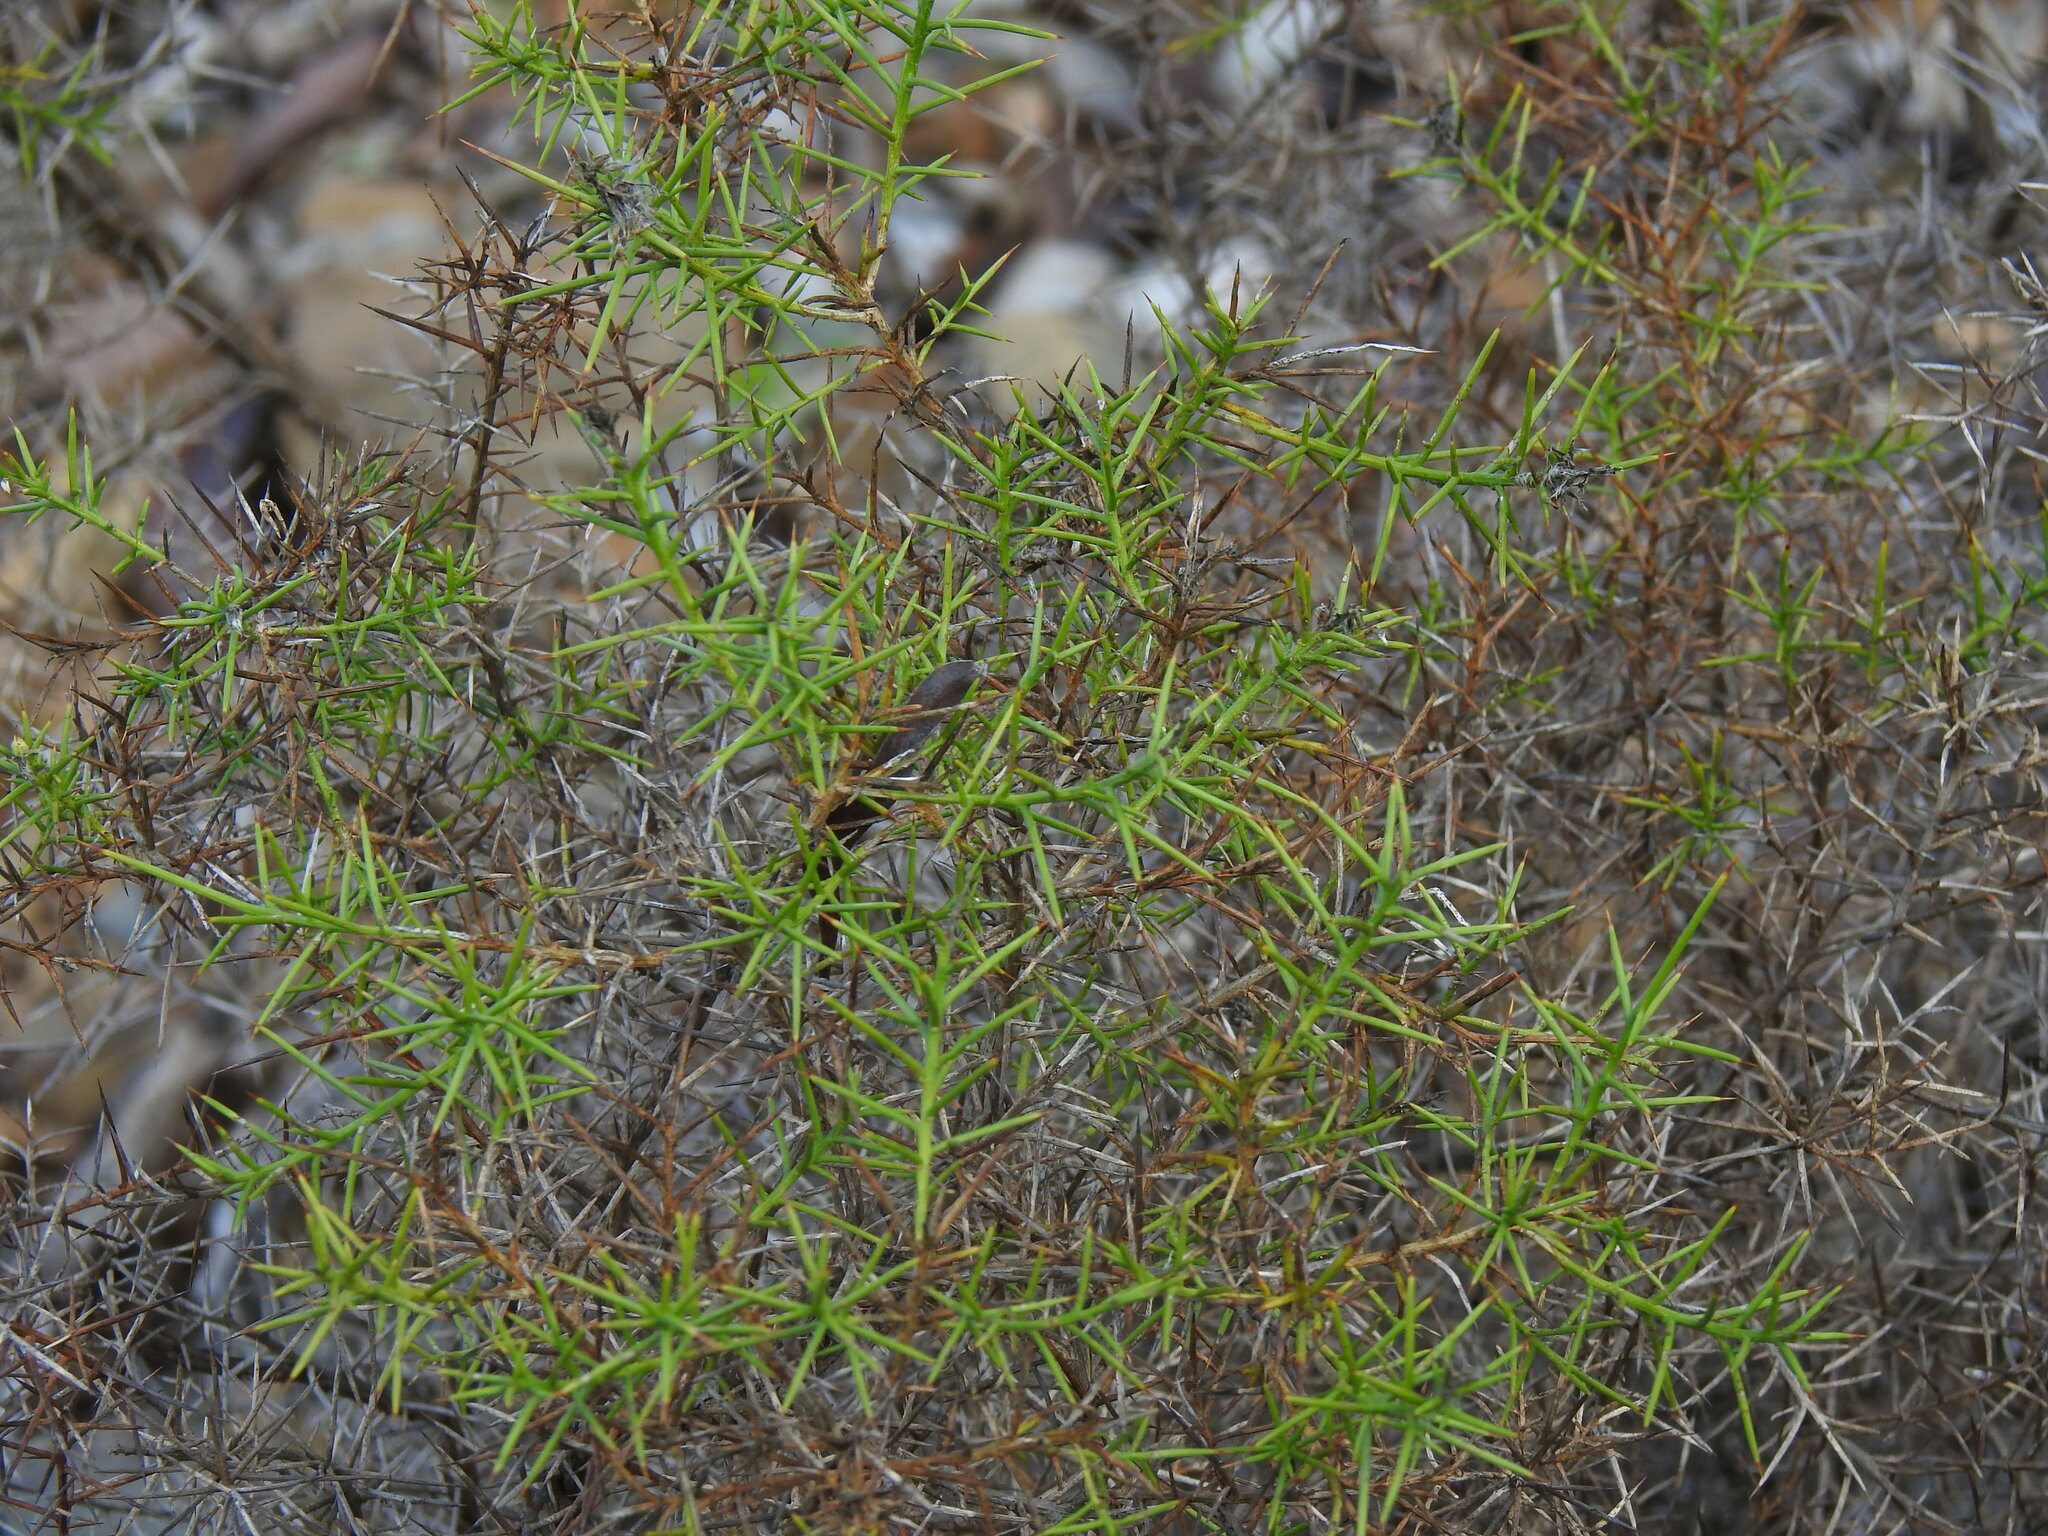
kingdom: Plantae
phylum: Tracheophyta
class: Magnoliopsida
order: Fabales
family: Fabaceae
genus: Genista
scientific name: Genista hirsuta
